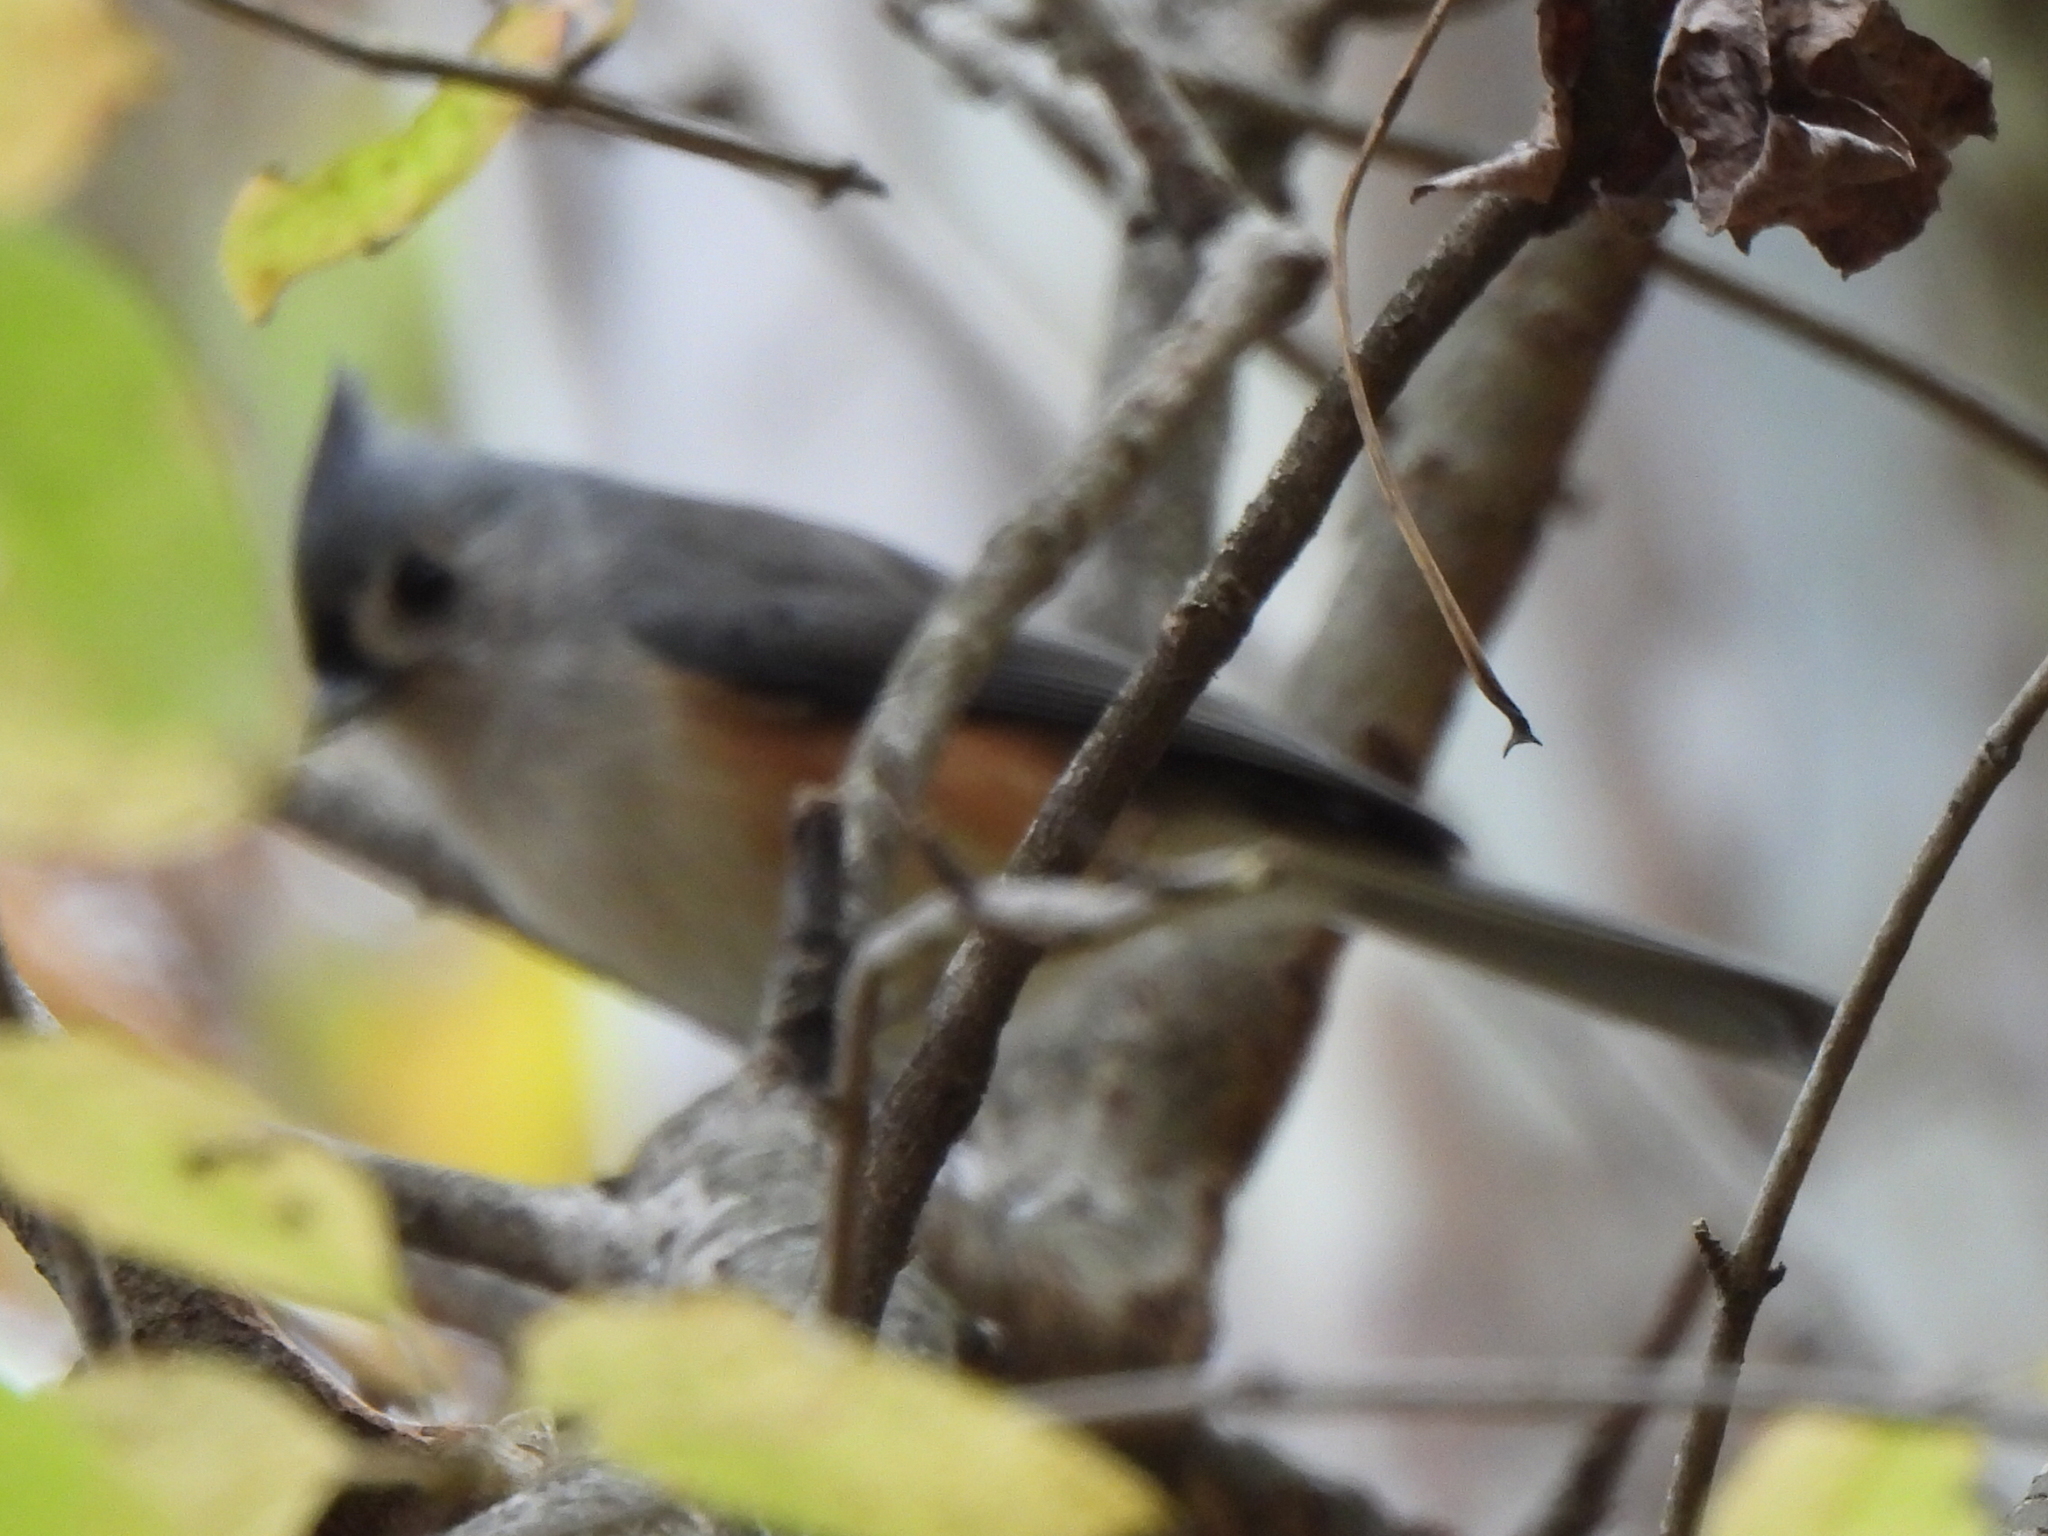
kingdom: Animalia
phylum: Chordata
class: Aves
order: Passeriformes
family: Paridae
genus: Baeolophus
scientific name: Baeolophus bicolor
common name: Tufted titmouse
